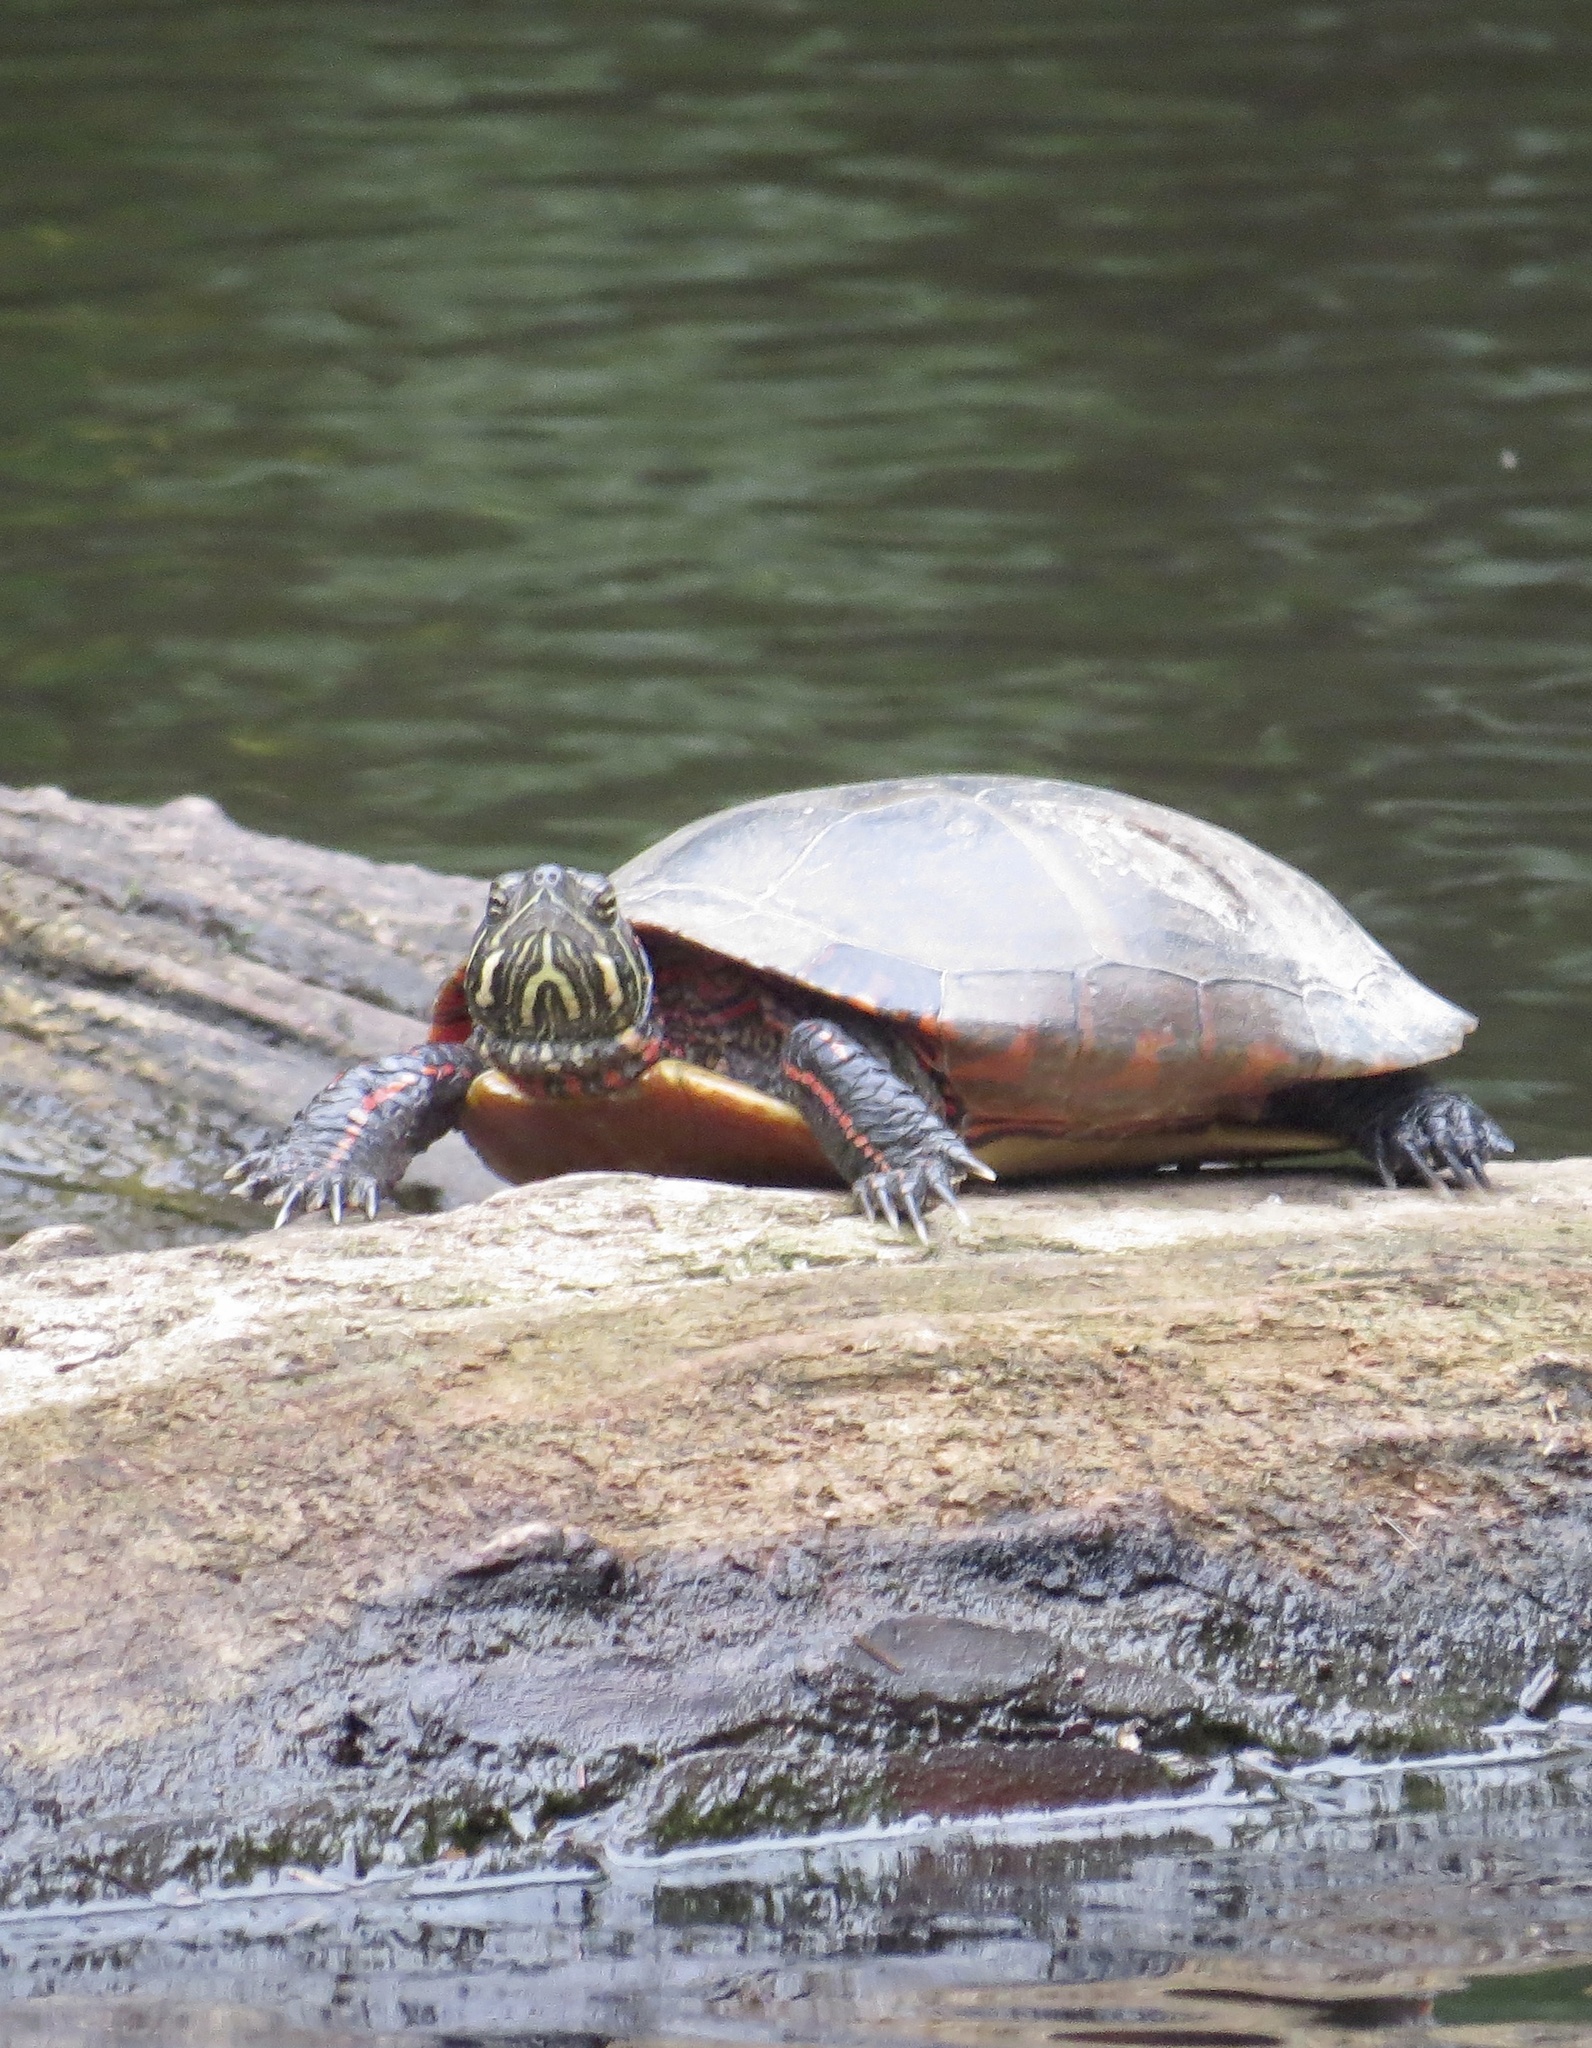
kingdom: Animalia
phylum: Chordata
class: Testudines
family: Emydidae
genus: Chrysemys
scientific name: Chrysemys picta
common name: Painted turtle
